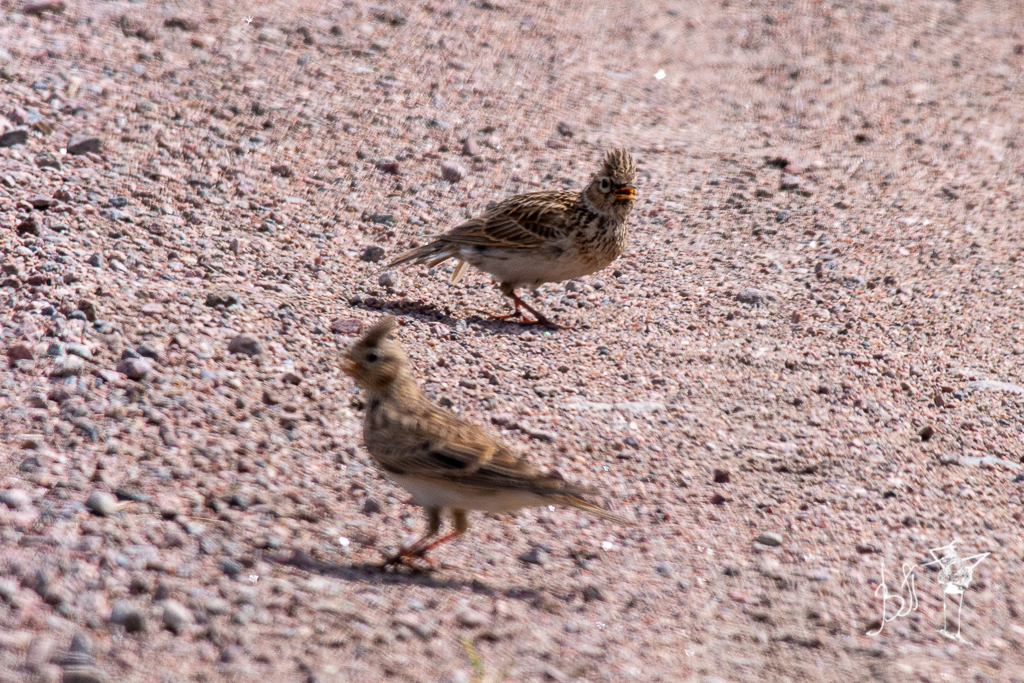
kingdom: Animalia
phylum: Chordata
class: Aves
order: Passeriformes
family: Alaudidae
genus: Alauda
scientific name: Alauda arvensis
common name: Eurasian skylark
